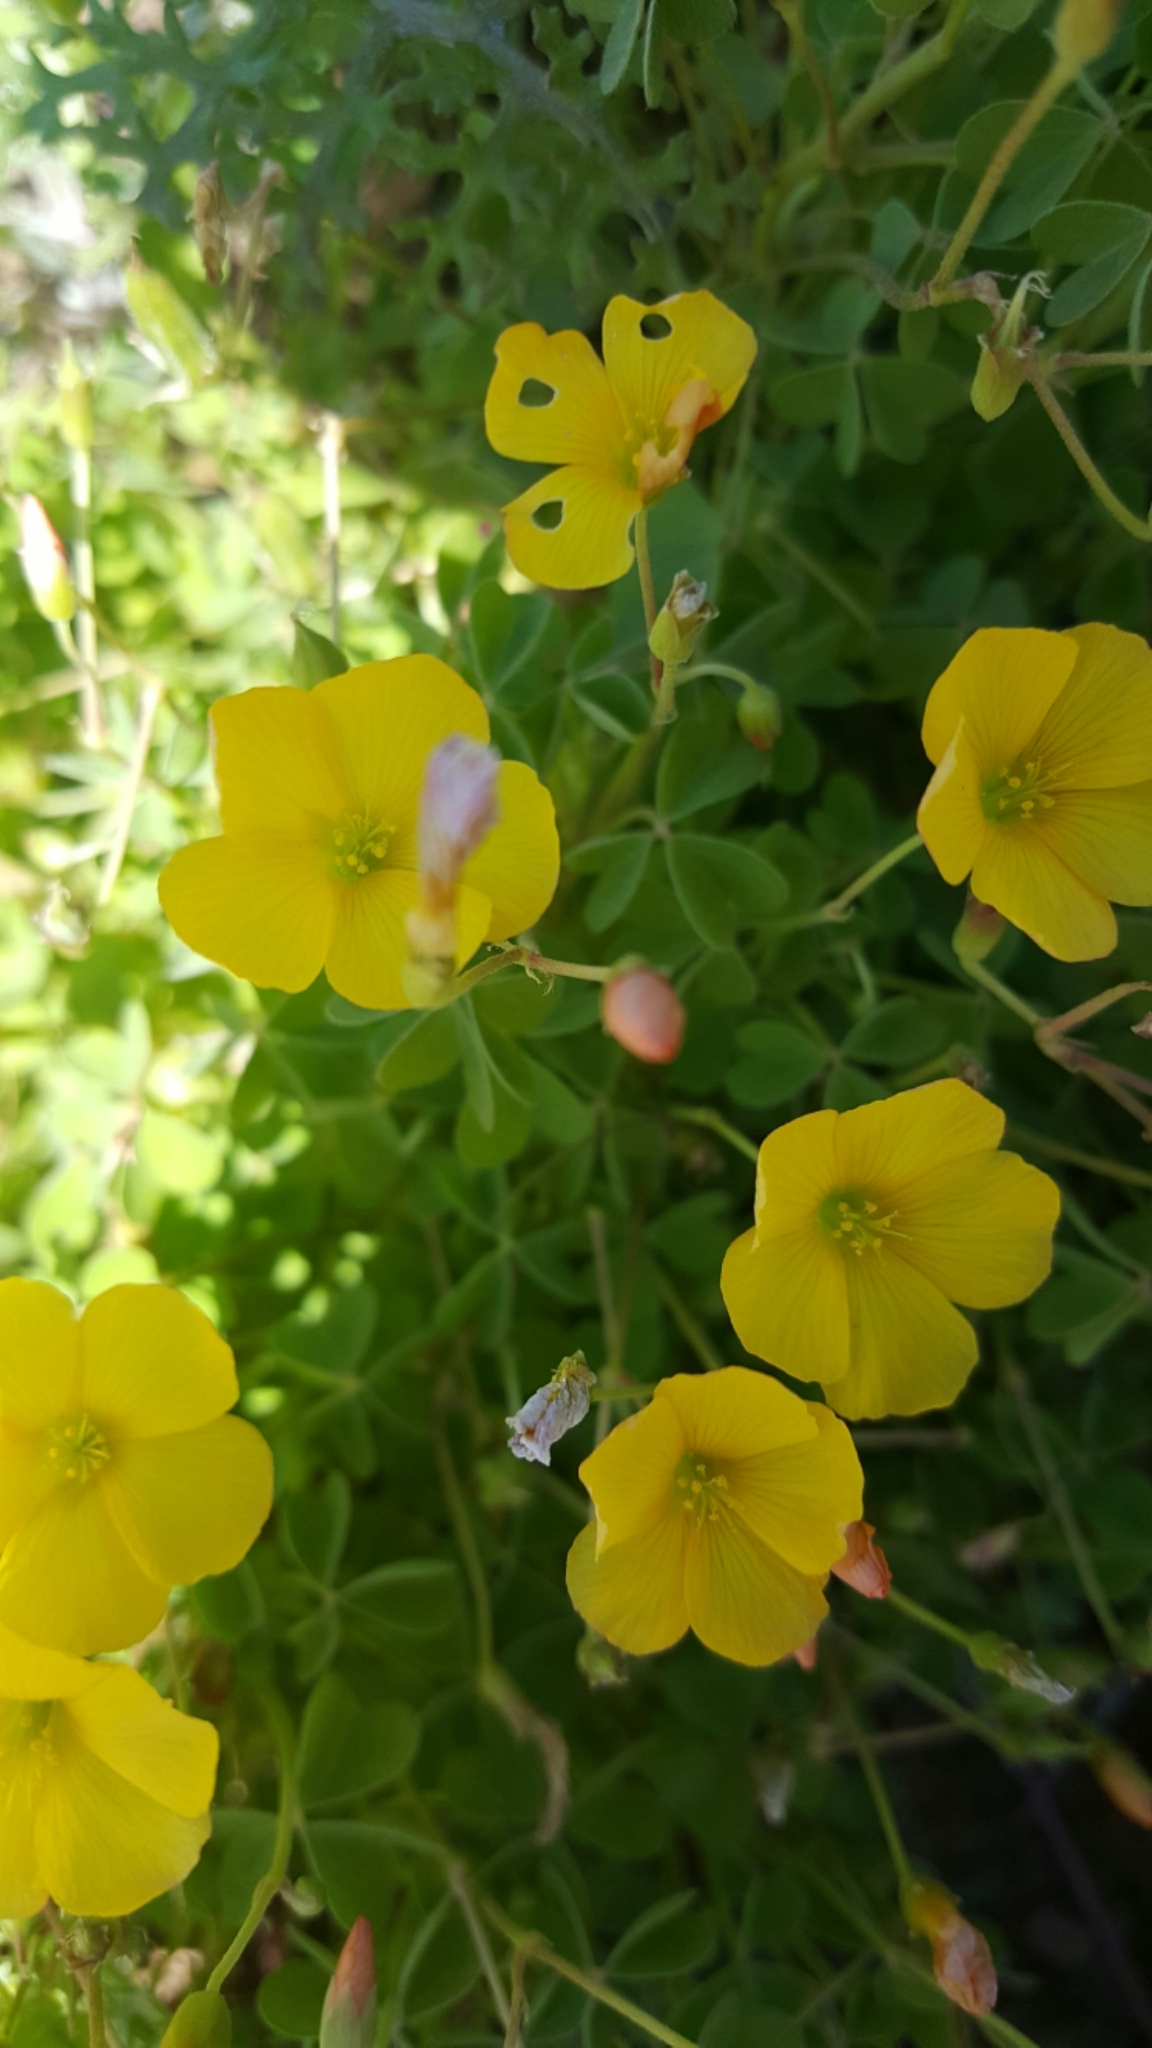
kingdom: Plantae
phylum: Tracheophyta
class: Magnoliopsida
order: Oxalidales
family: Oxalidaceae
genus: Oxalis
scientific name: Oxalis californica
